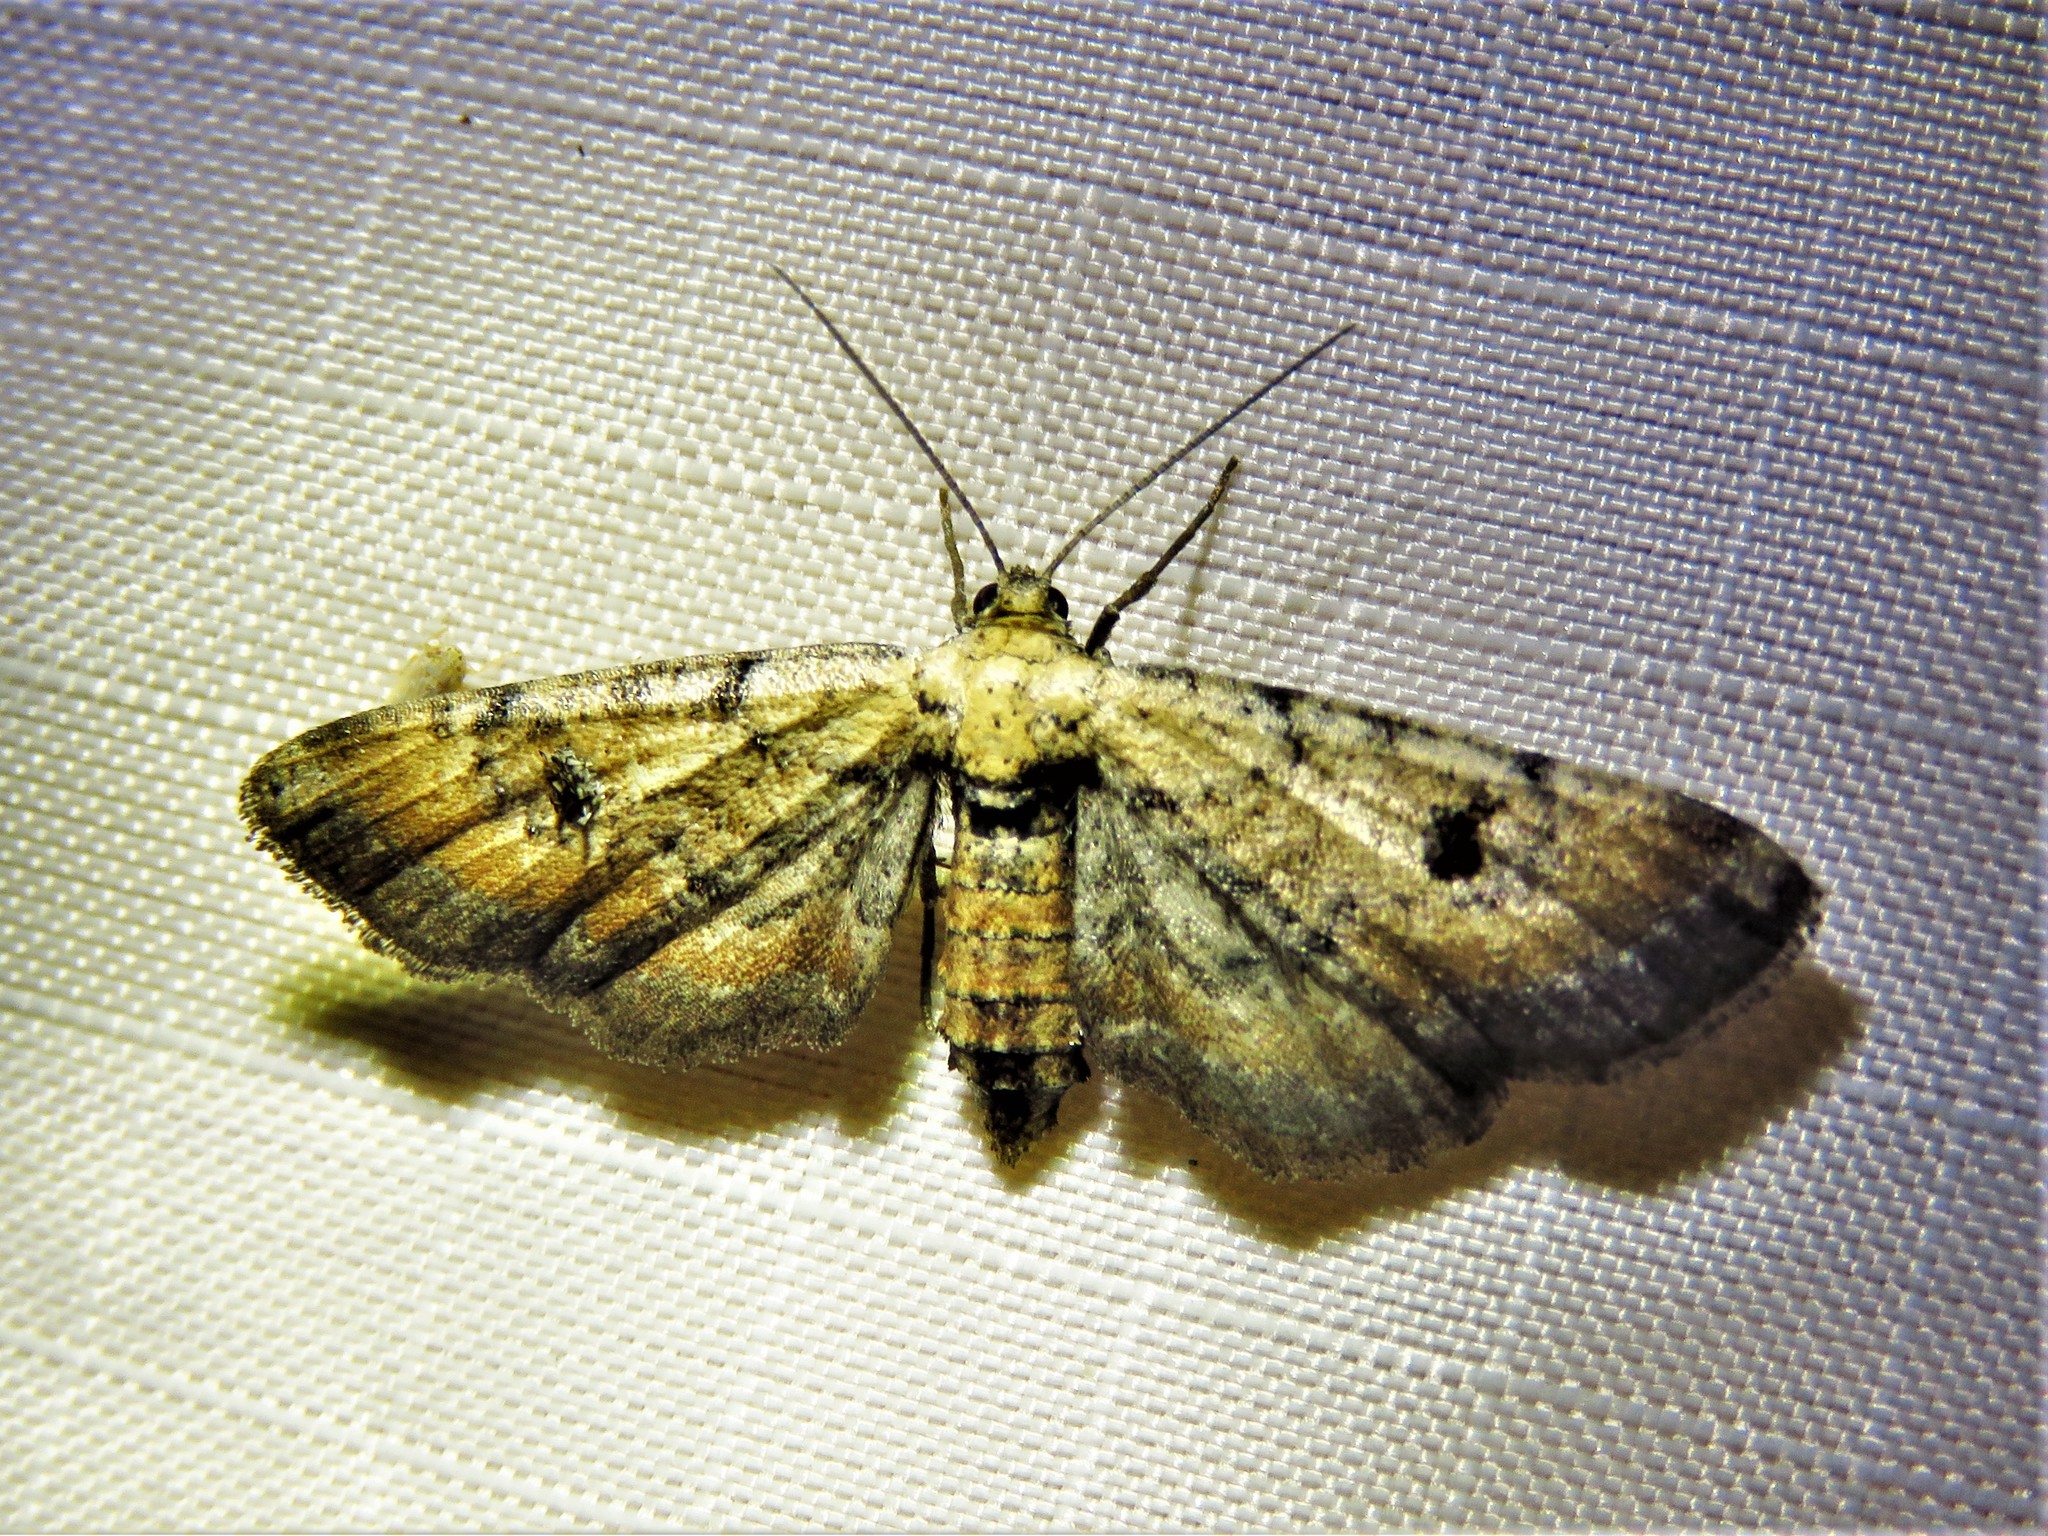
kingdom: Animalia
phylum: Arthropoda
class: Insecta
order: Lepidoptera
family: Geometridae
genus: Tornos
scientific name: Tornos scolopacinaria
